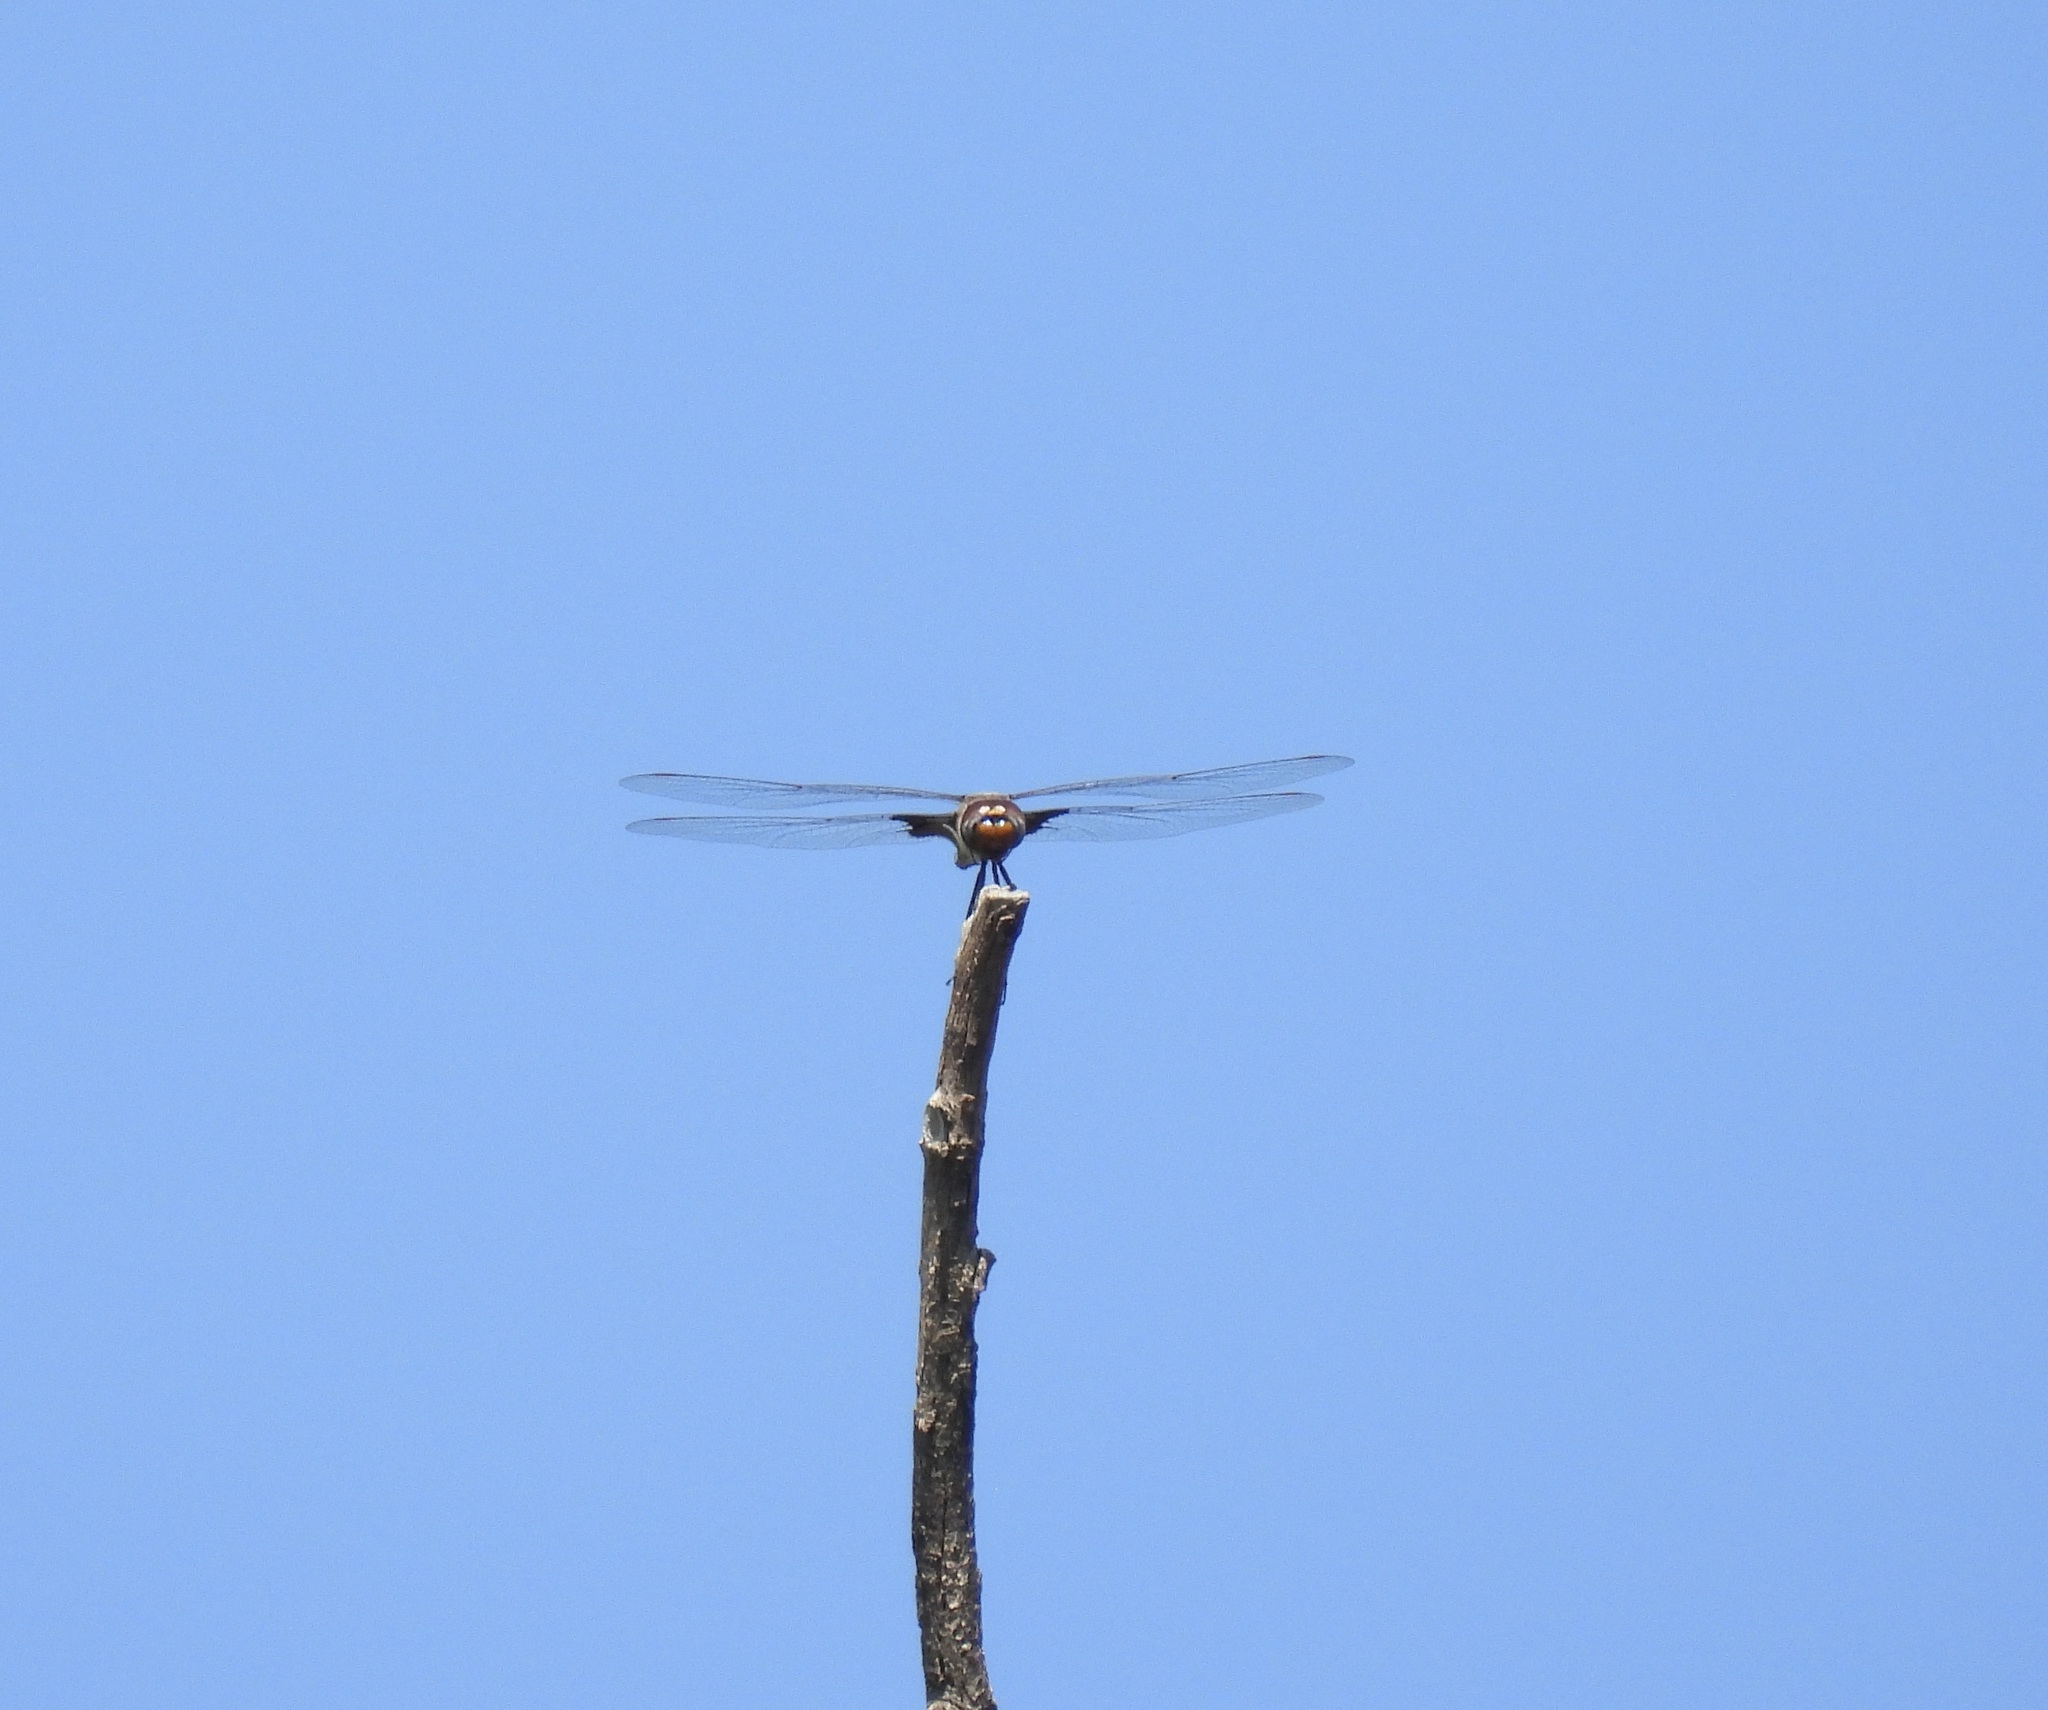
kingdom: Animalia
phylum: Arthropoda
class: Insecta
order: Odonata
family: Libellulidae
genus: Tramea
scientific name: Tramea lacerata
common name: Black saddlebags
